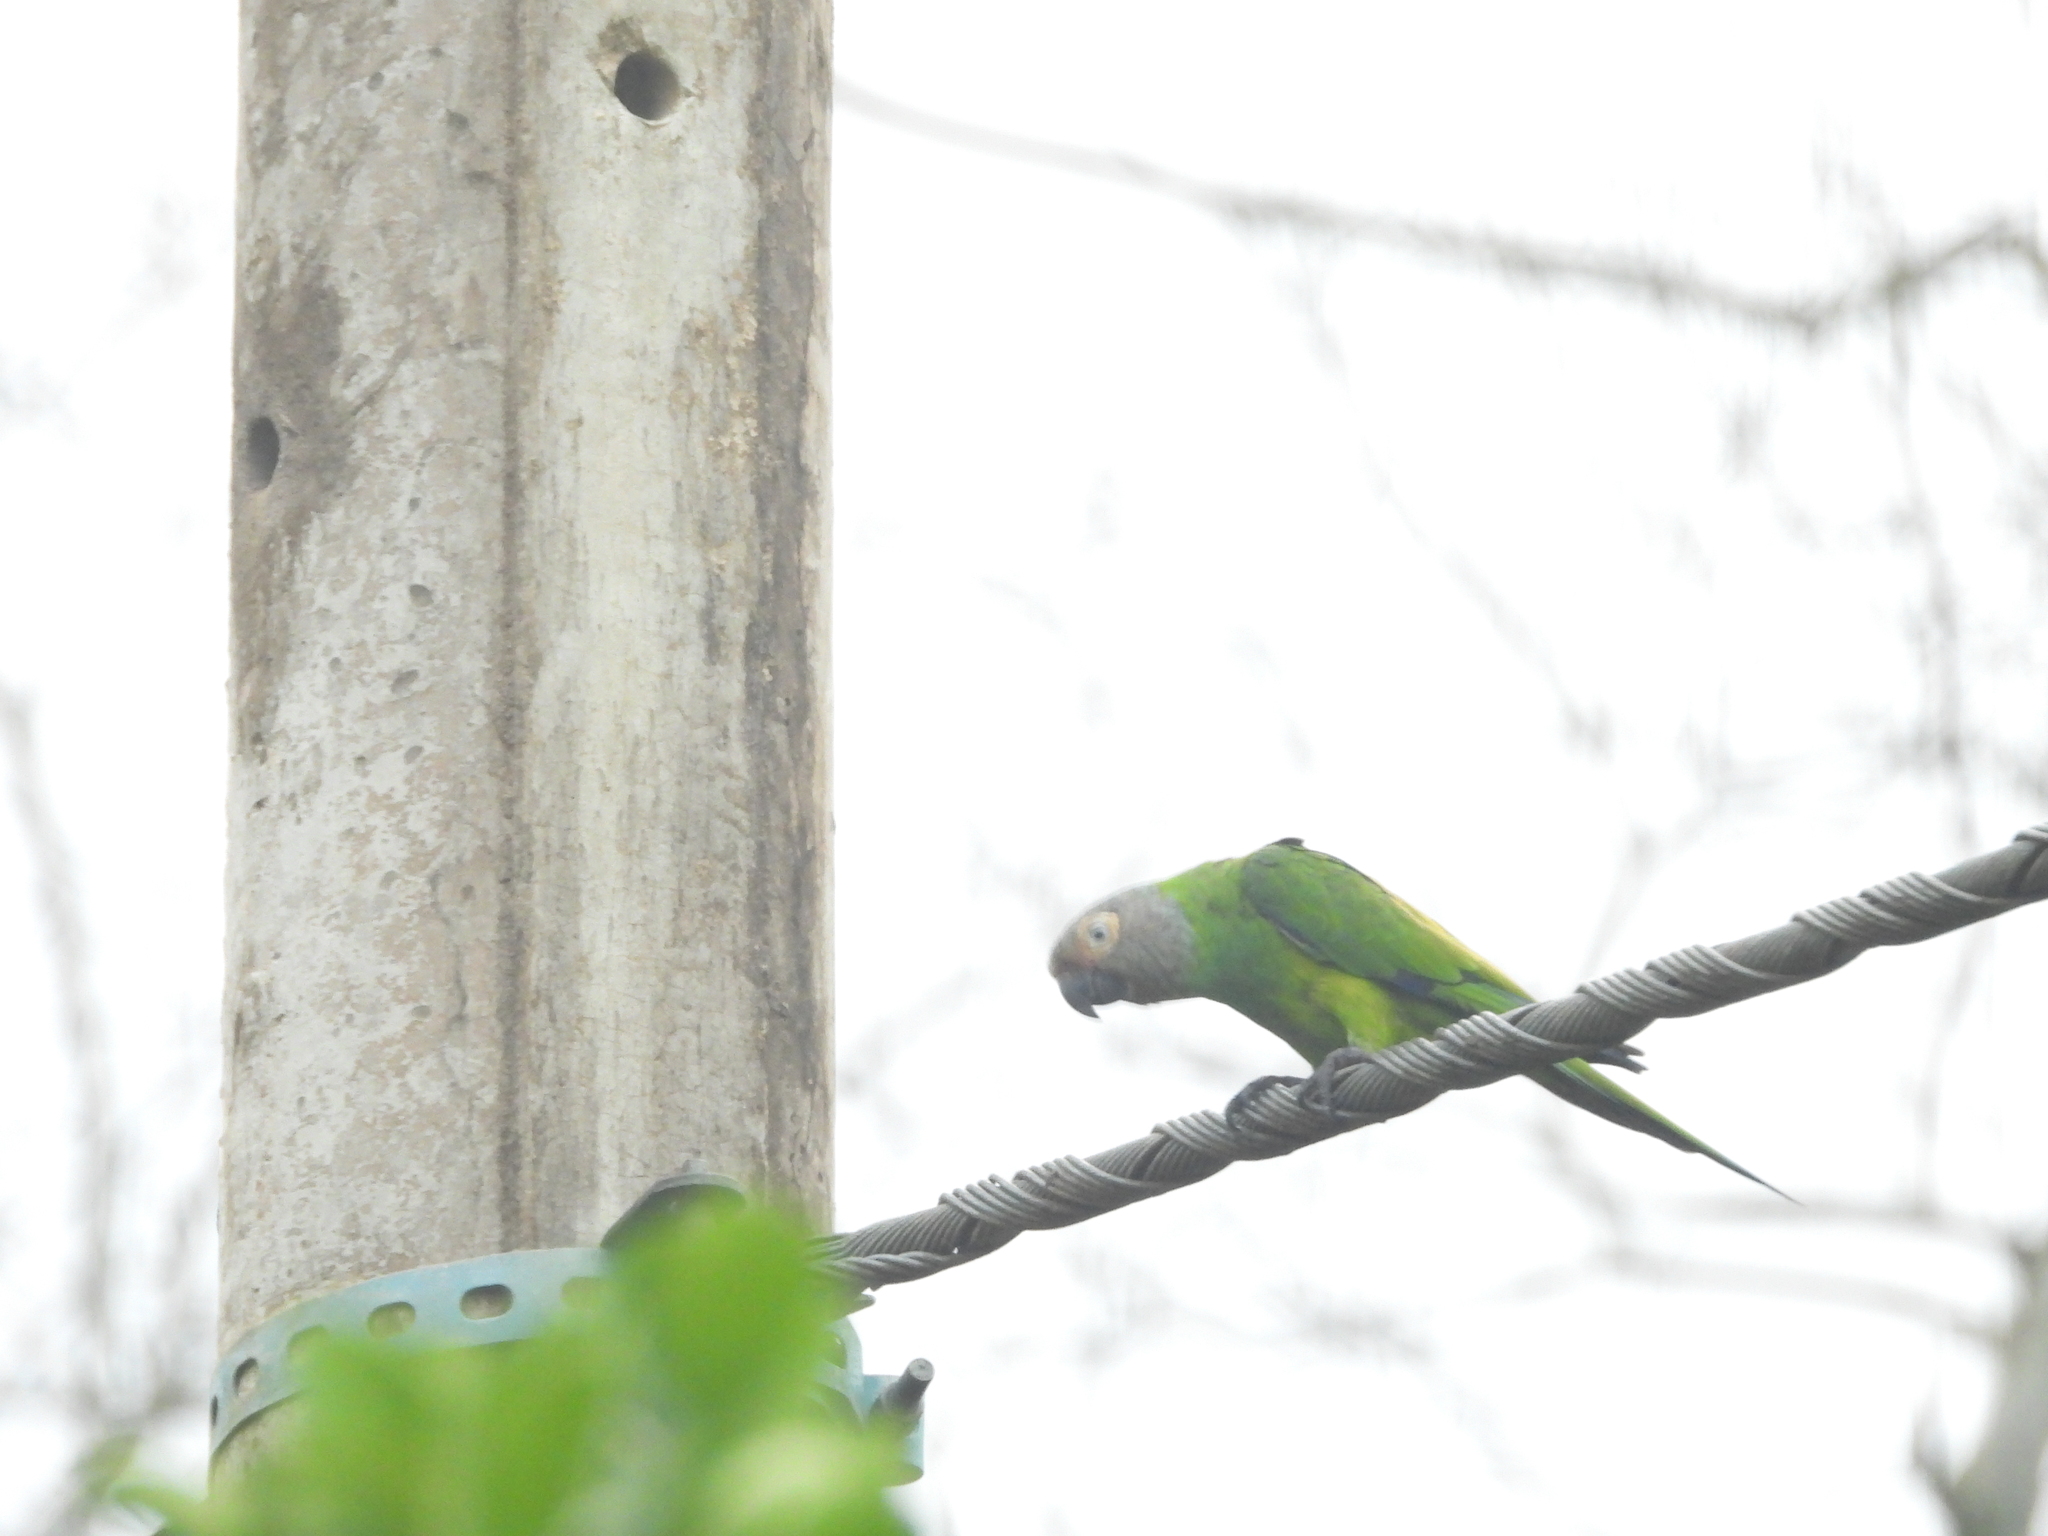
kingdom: Animalia
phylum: Chordata
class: Aves
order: Psittaciformes
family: Psittacidae
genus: Aratinga
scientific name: Aratinga weddellii
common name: Dusky-headed parakeet
